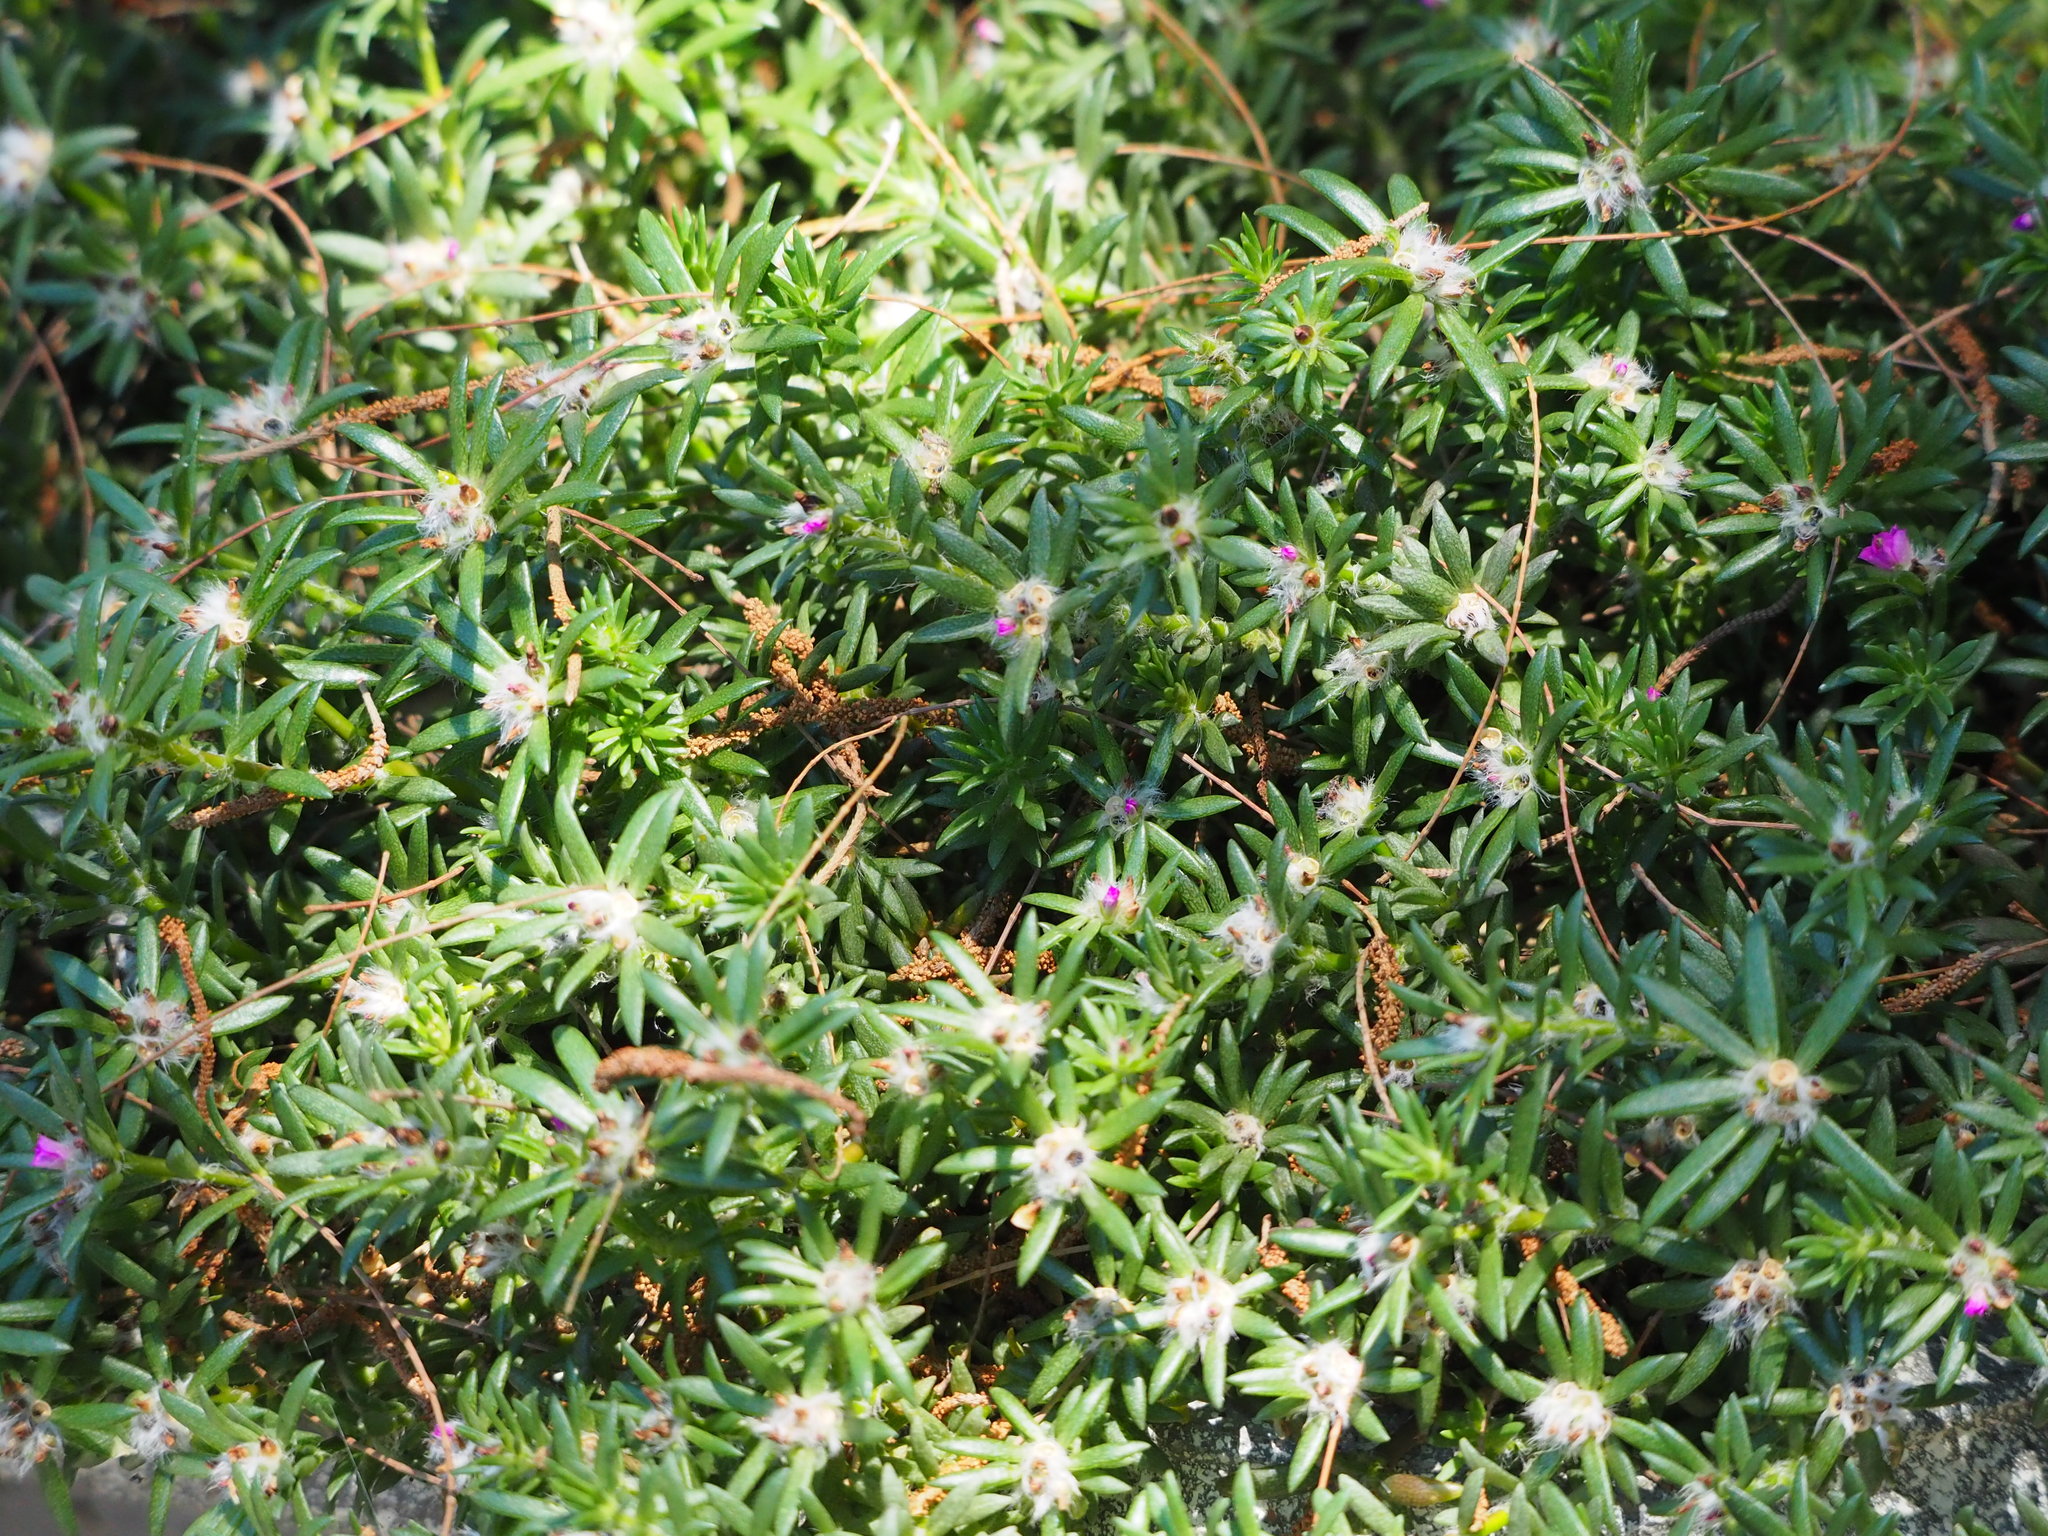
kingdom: Plantae
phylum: Tracheophyta
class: Magnoliopsida
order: Caryophyllales
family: Portulacaceae
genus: Portulaca
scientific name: Portulaca pilosa
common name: Kiss me quick
